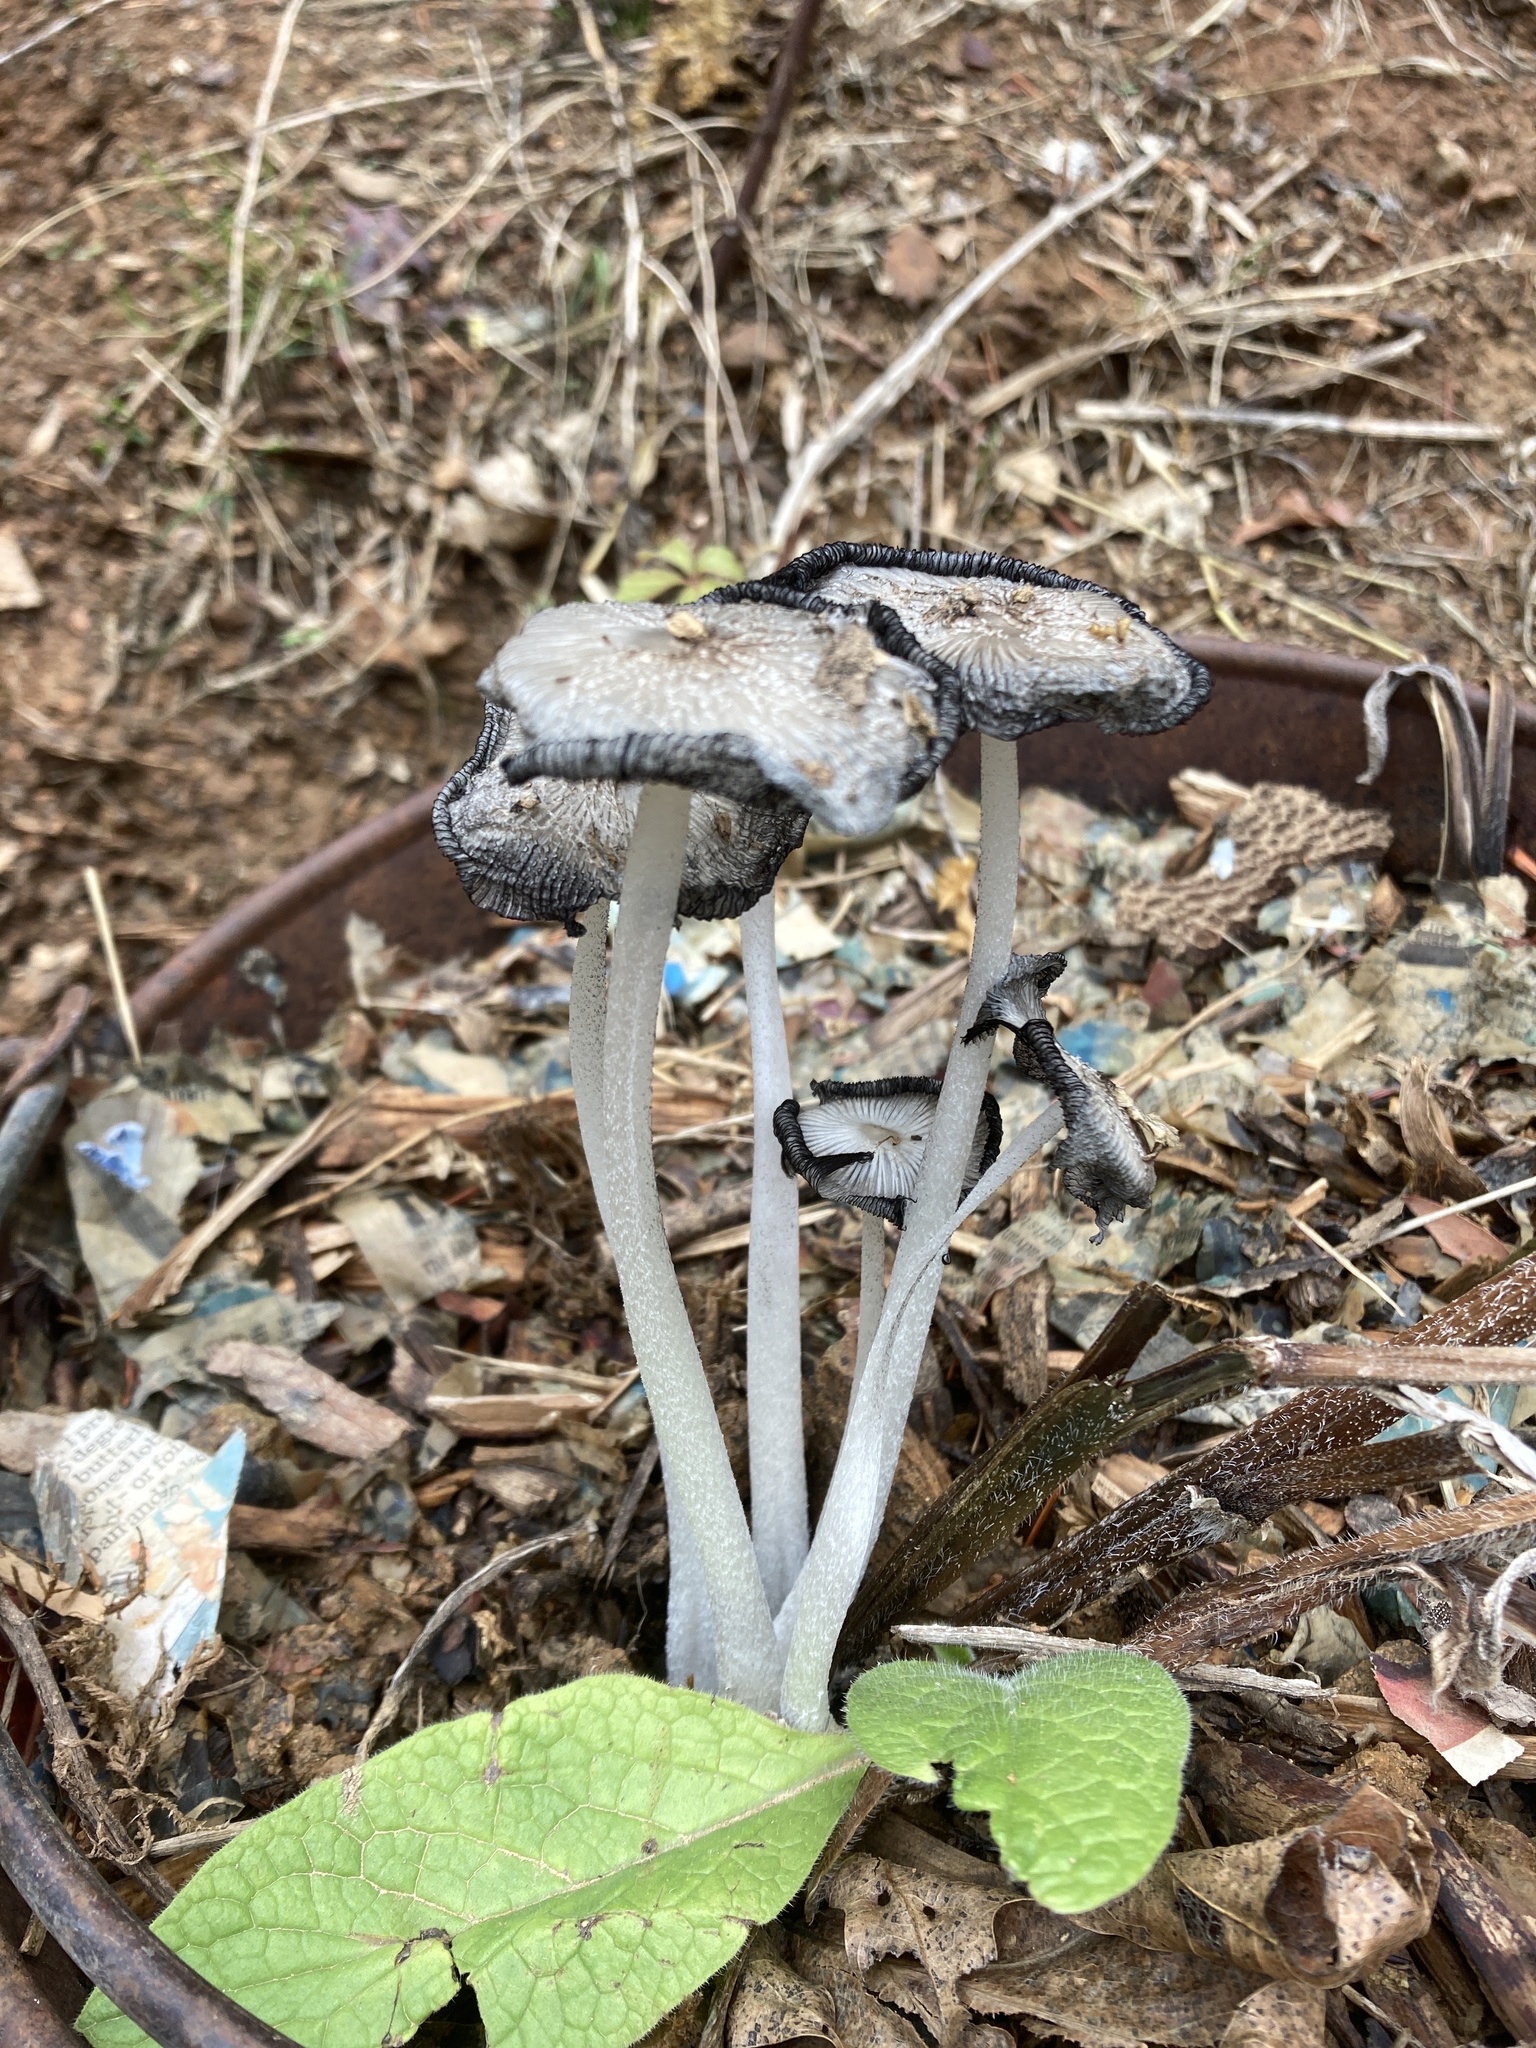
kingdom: Fungi
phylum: Basidiomycota
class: Agaricomycetes
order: Agaricales
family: Psathyrellaceae
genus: Coprinopsis
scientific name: Coprinopsis lagopus
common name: Hare'sfoot inkcap
